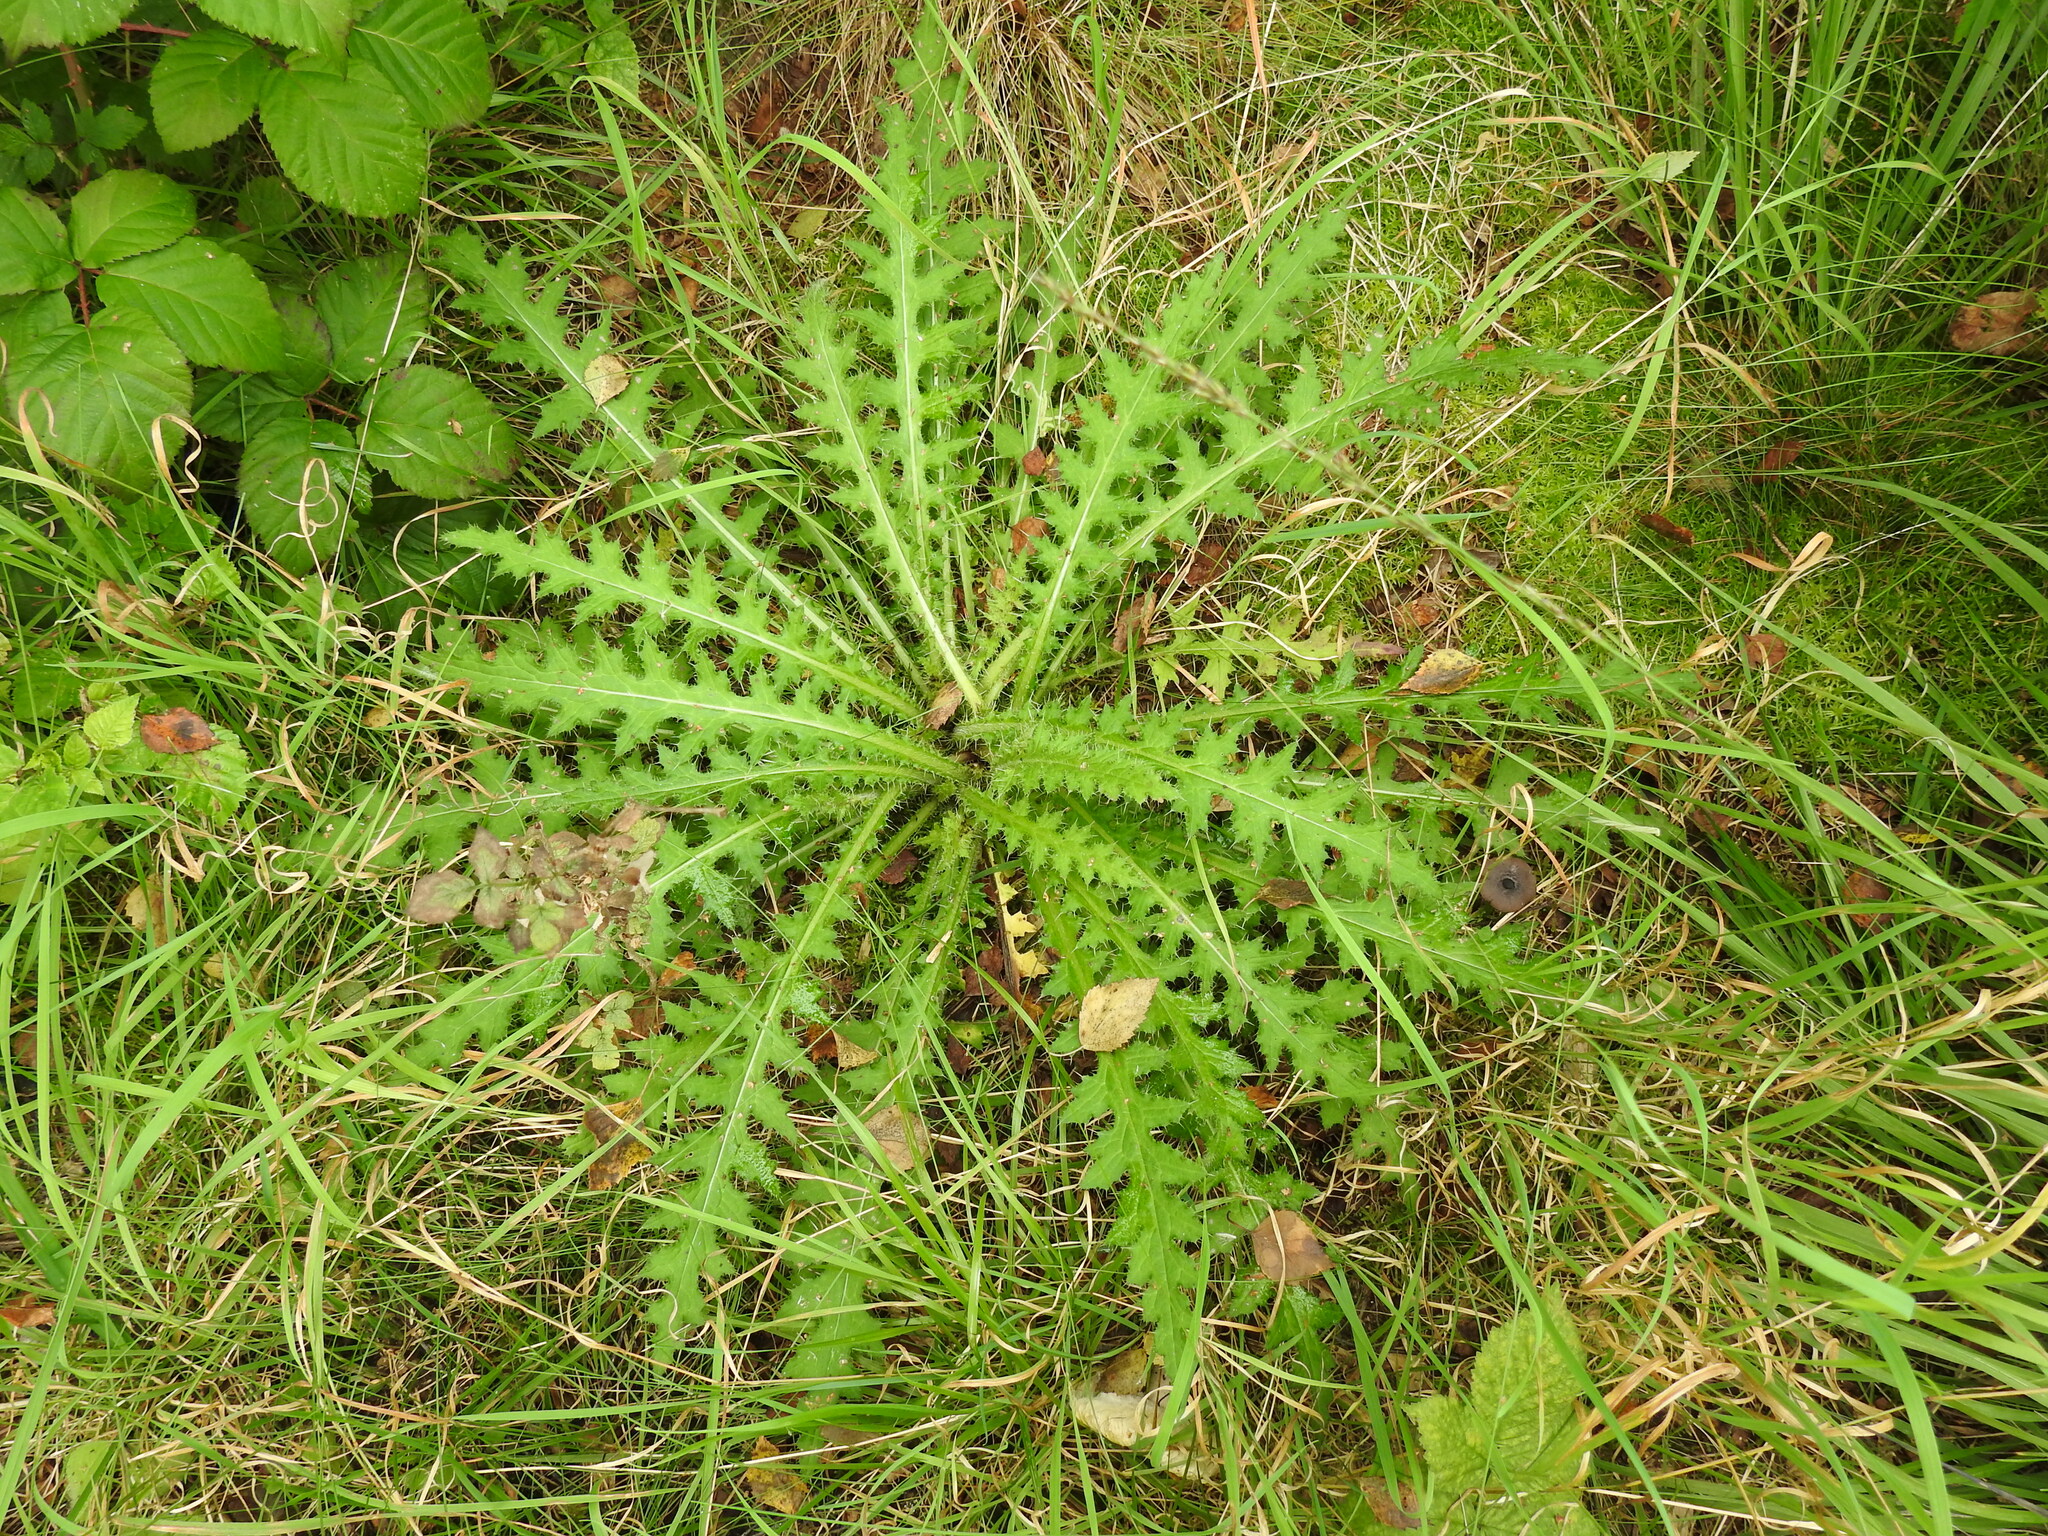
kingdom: Plantae
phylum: Tracheophyta
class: Magnoliopsida
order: Asterales
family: Asteraceae
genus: Cirsium
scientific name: Cirsium palustre
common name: Marsh thistle
